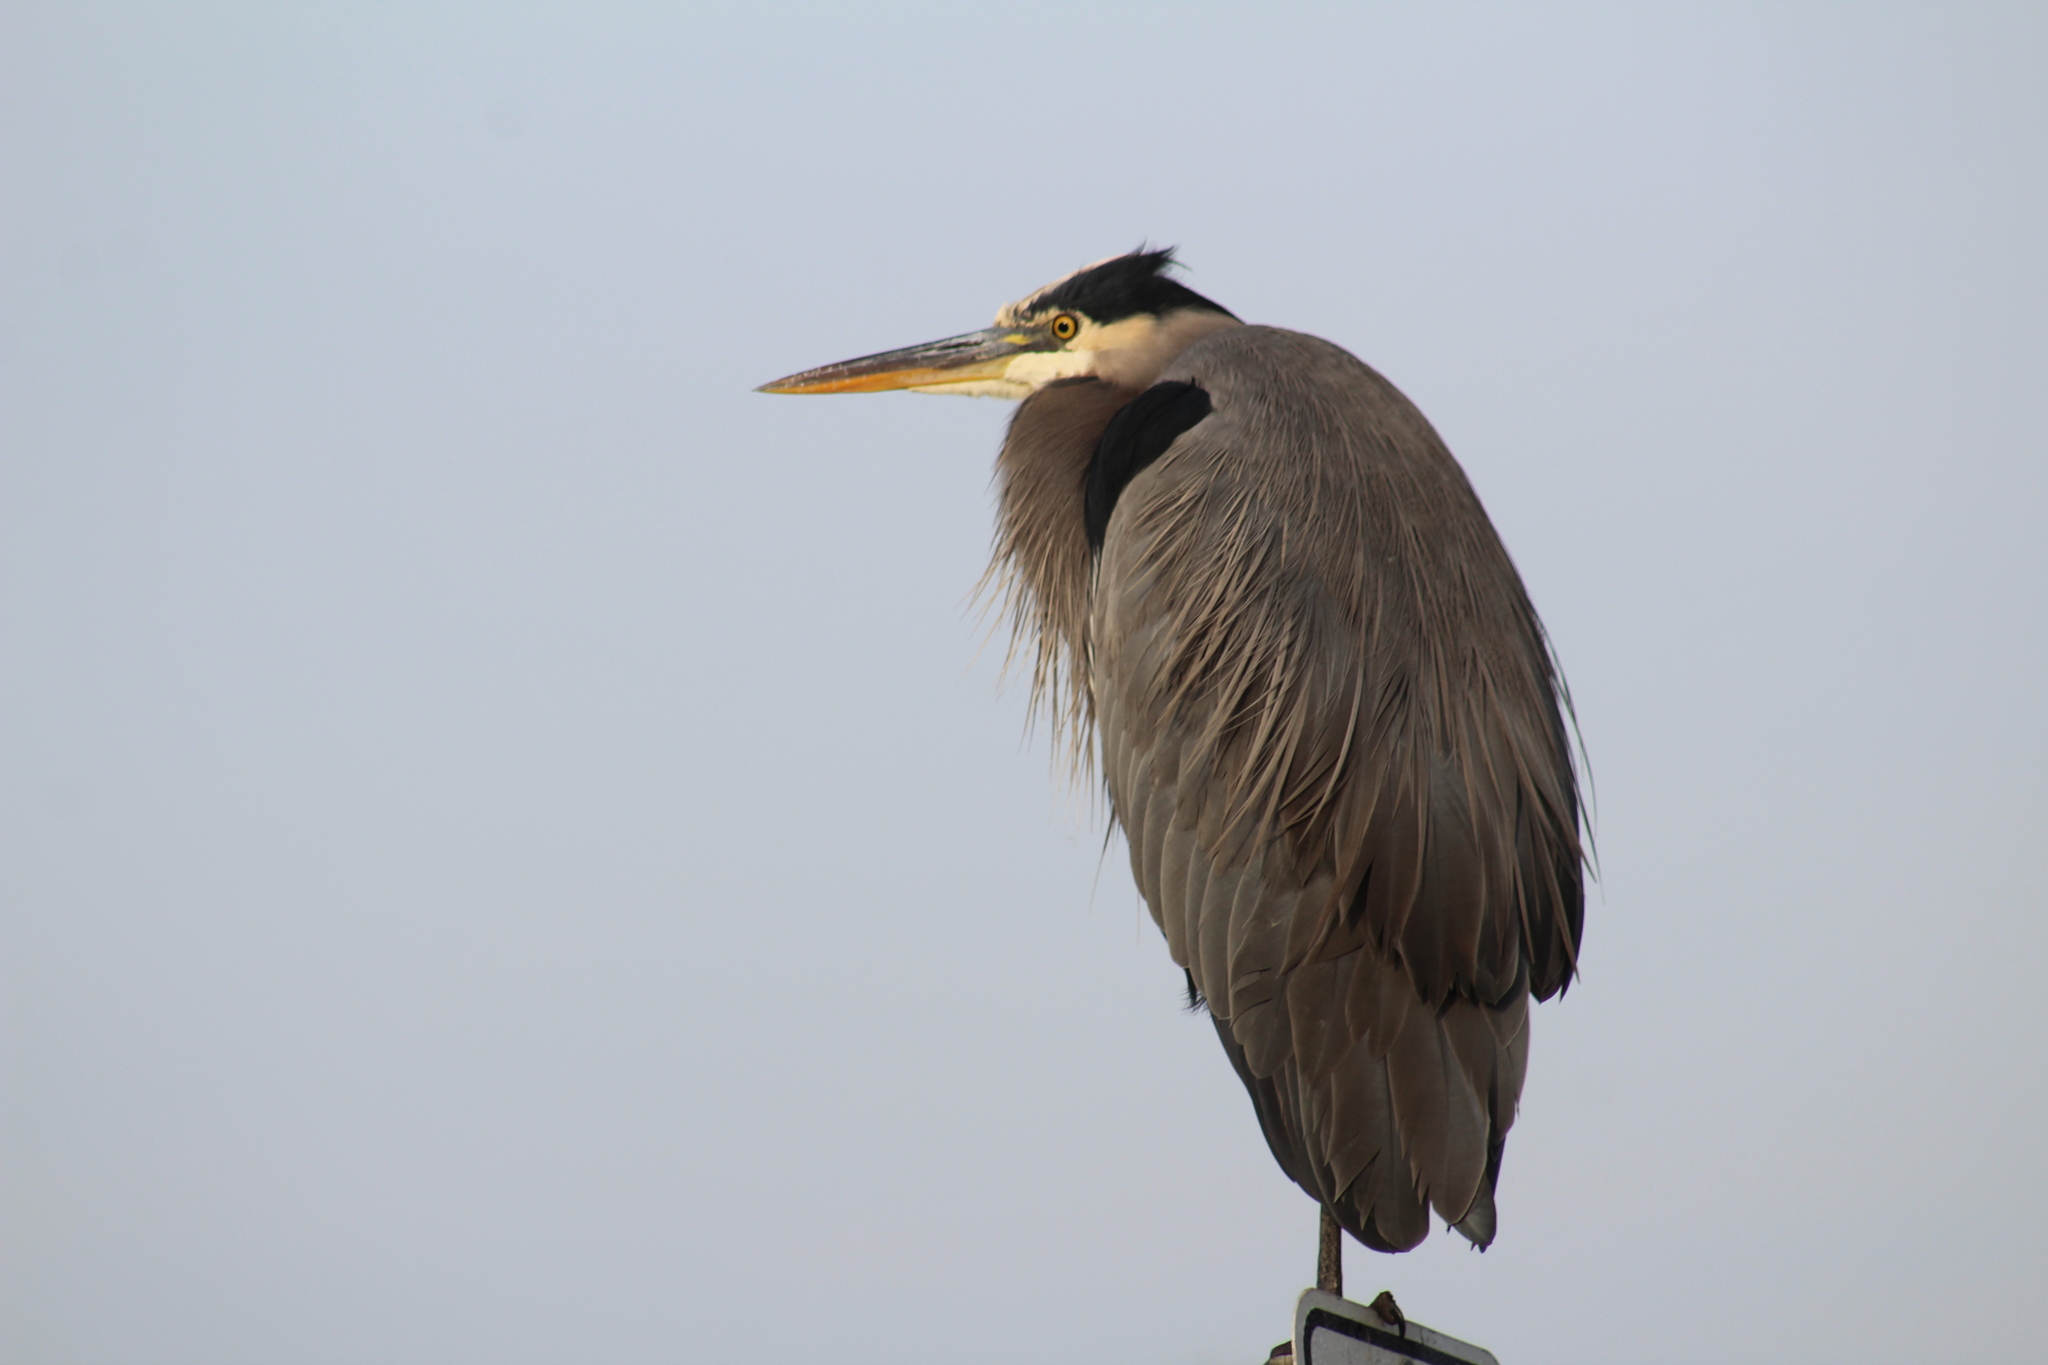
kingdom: Animalia
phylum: Chordata
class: Aves
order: Pelecaniformes
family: Ardeidae
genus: Ardea
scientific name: Ardea herodias
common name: Great blue heron
